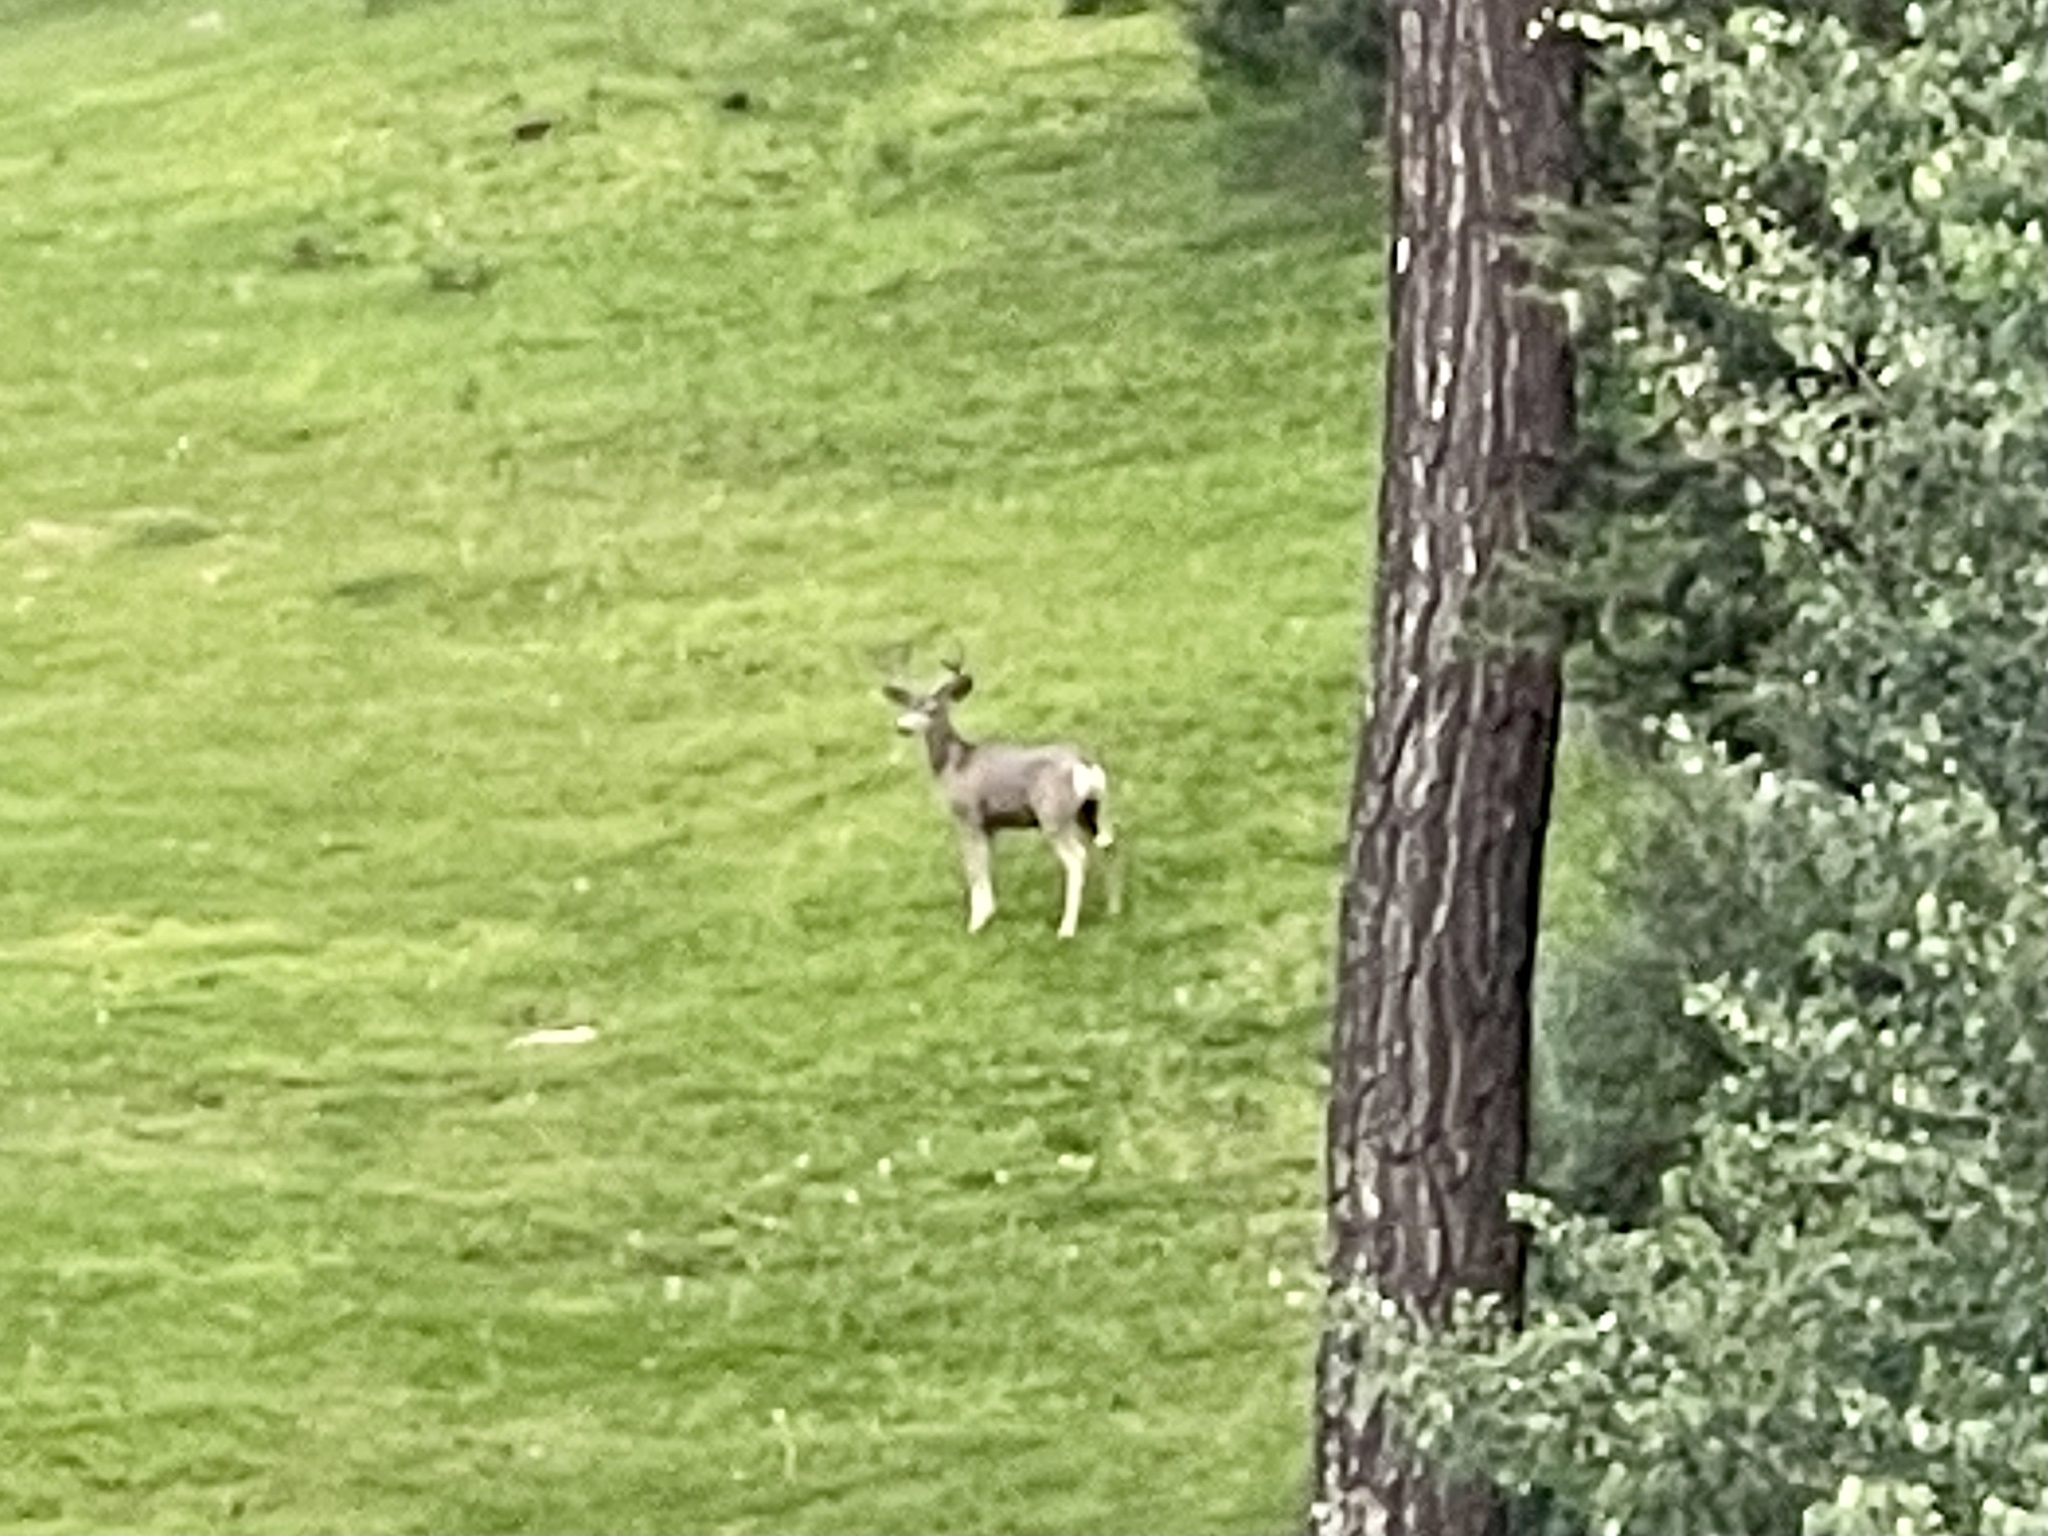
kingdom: Animalia
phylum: Chordata
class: Mammalia
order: Artiodactyla
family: Cervidae
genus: Odocoileus
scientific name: Odocoileus hemionus
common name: Mule deer
